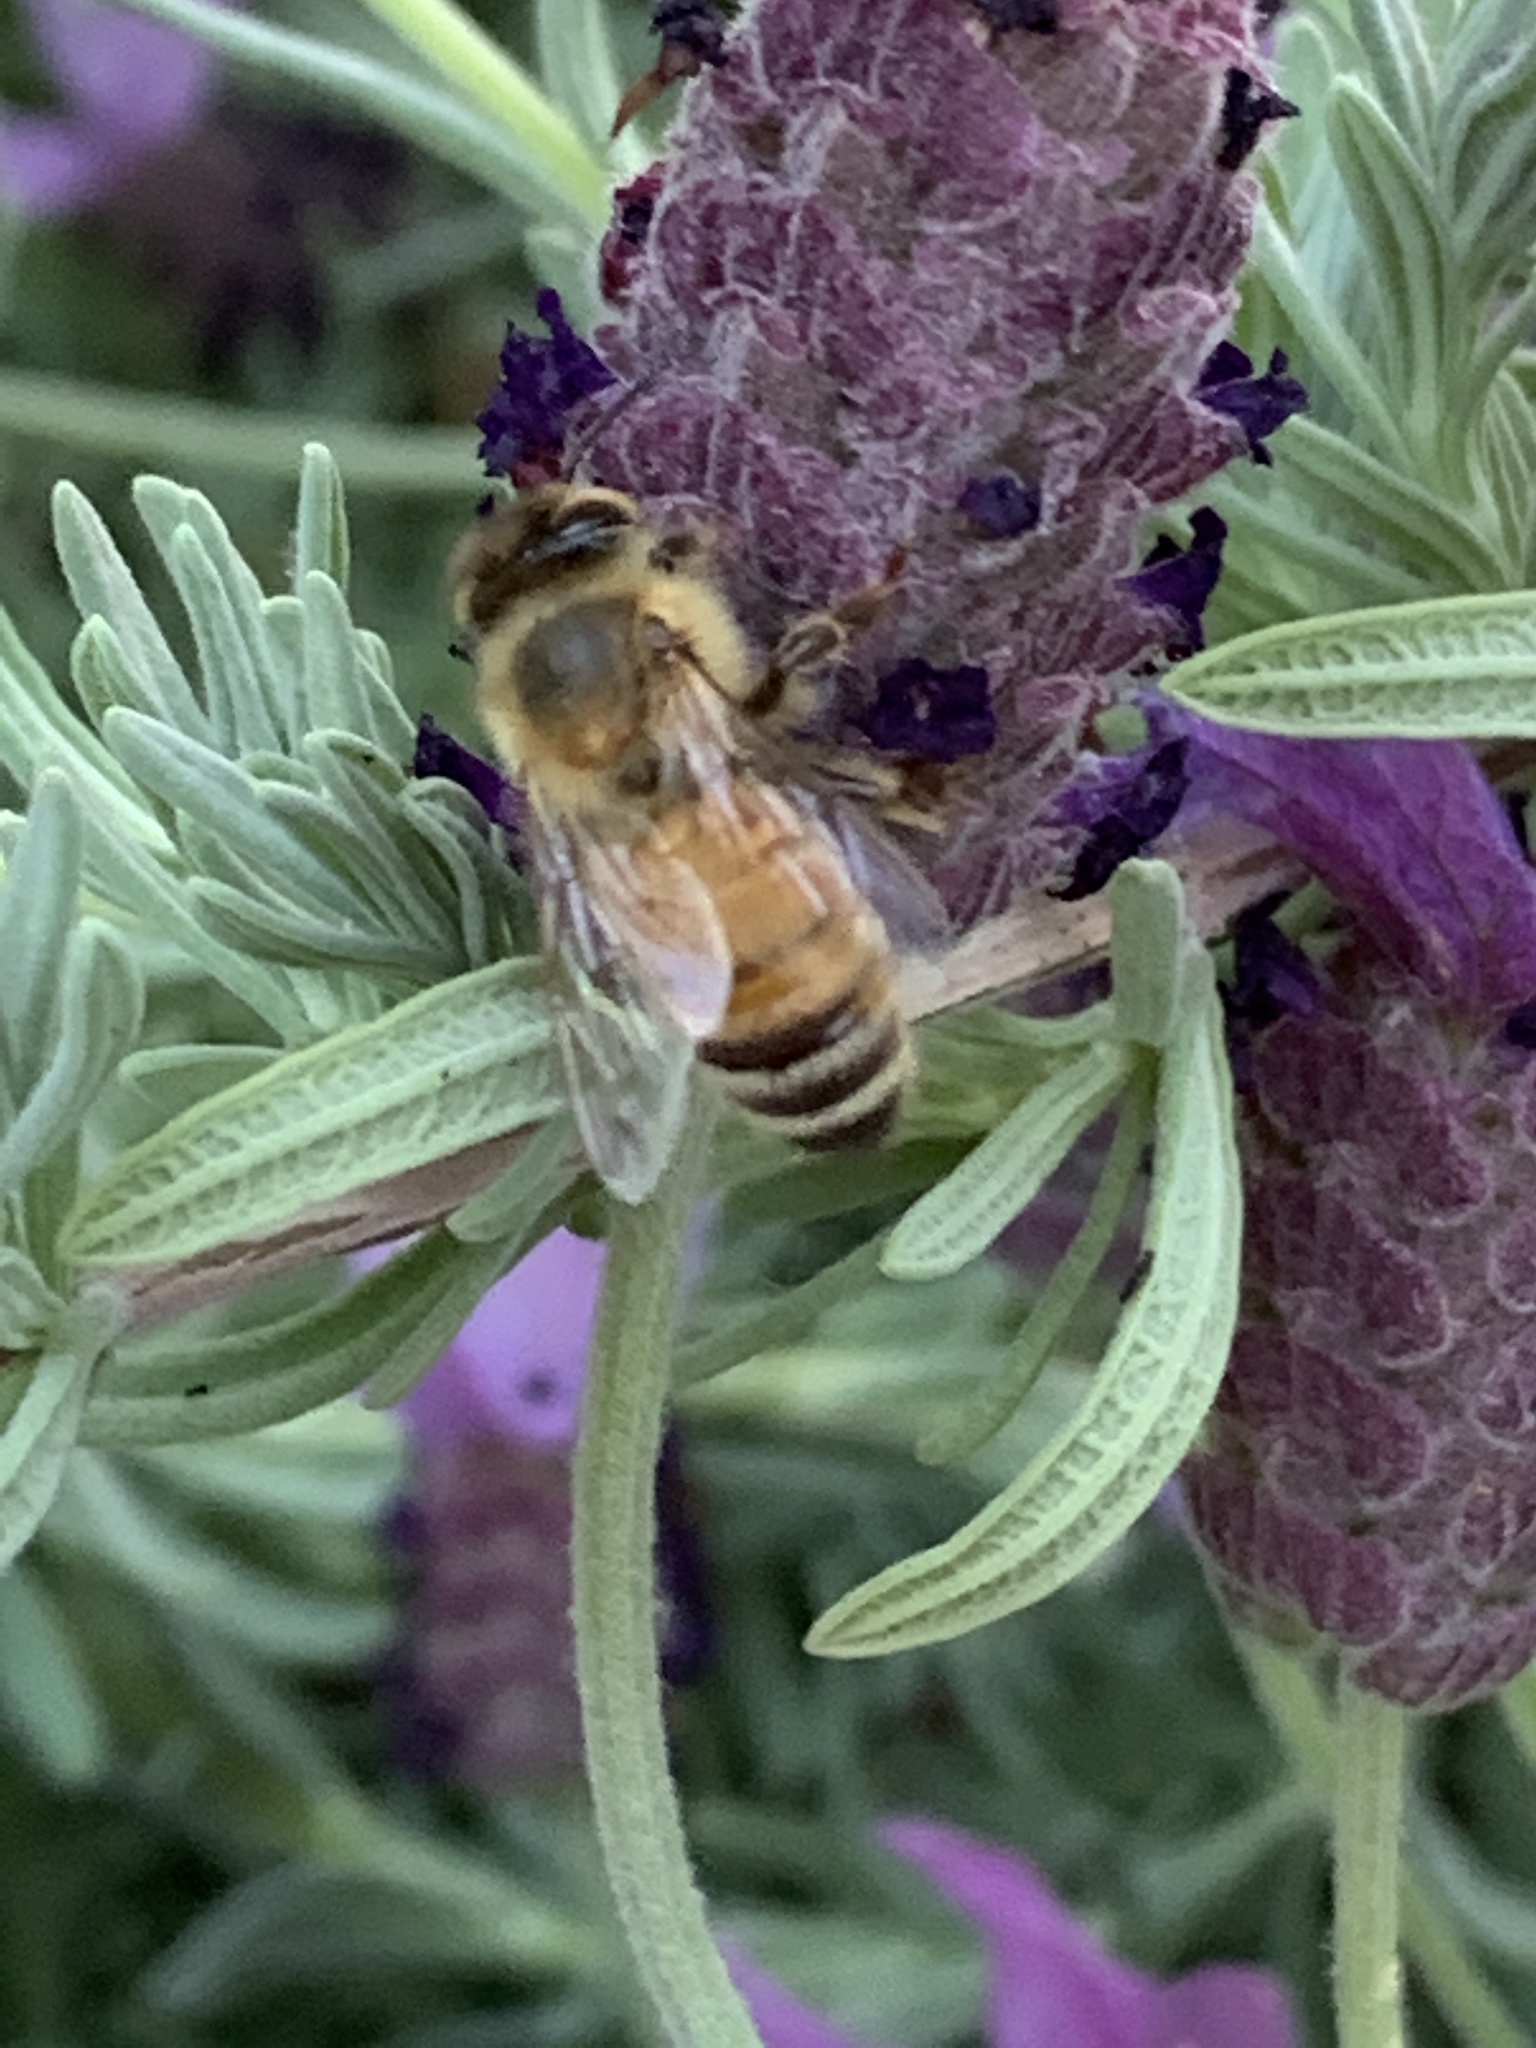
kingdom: Animalia
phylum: Arthropoda
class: Insecta
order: Hymenoptera
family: Apidae
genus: Apis
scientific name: Apis mellifera
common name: Honey bee
